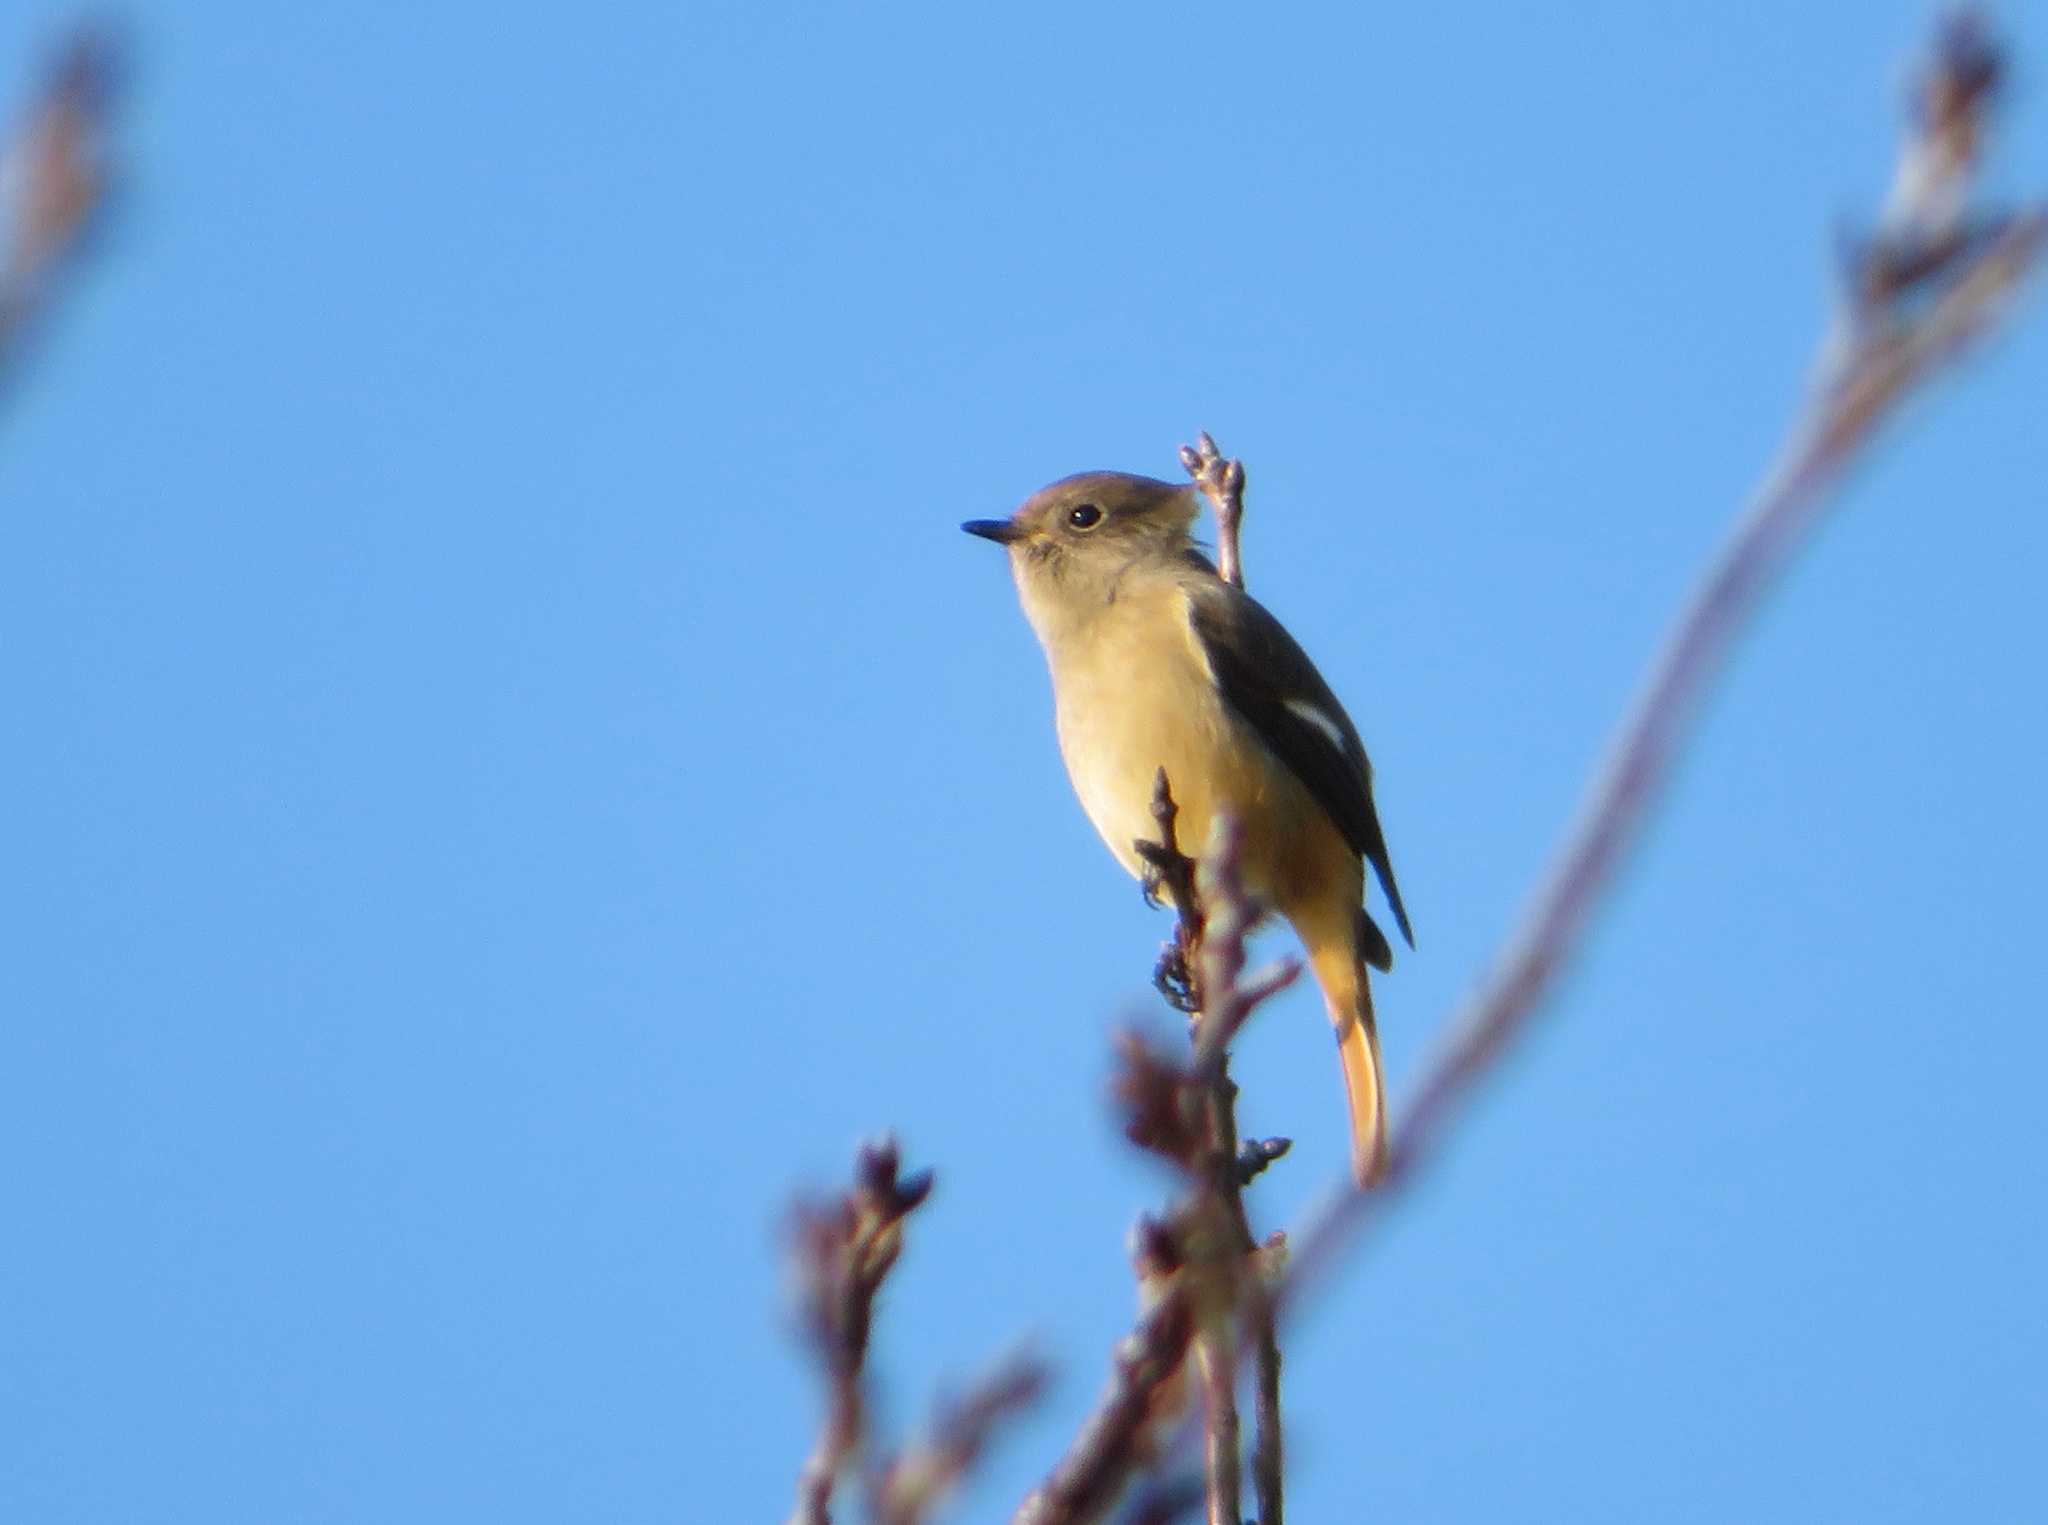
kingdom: Animalia
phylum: Chordata
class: Aves
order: Passeriformes
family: Muscicapidae
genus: Phoenicurus
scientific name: Phoenicurus auroreus
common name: Daurian redstart
